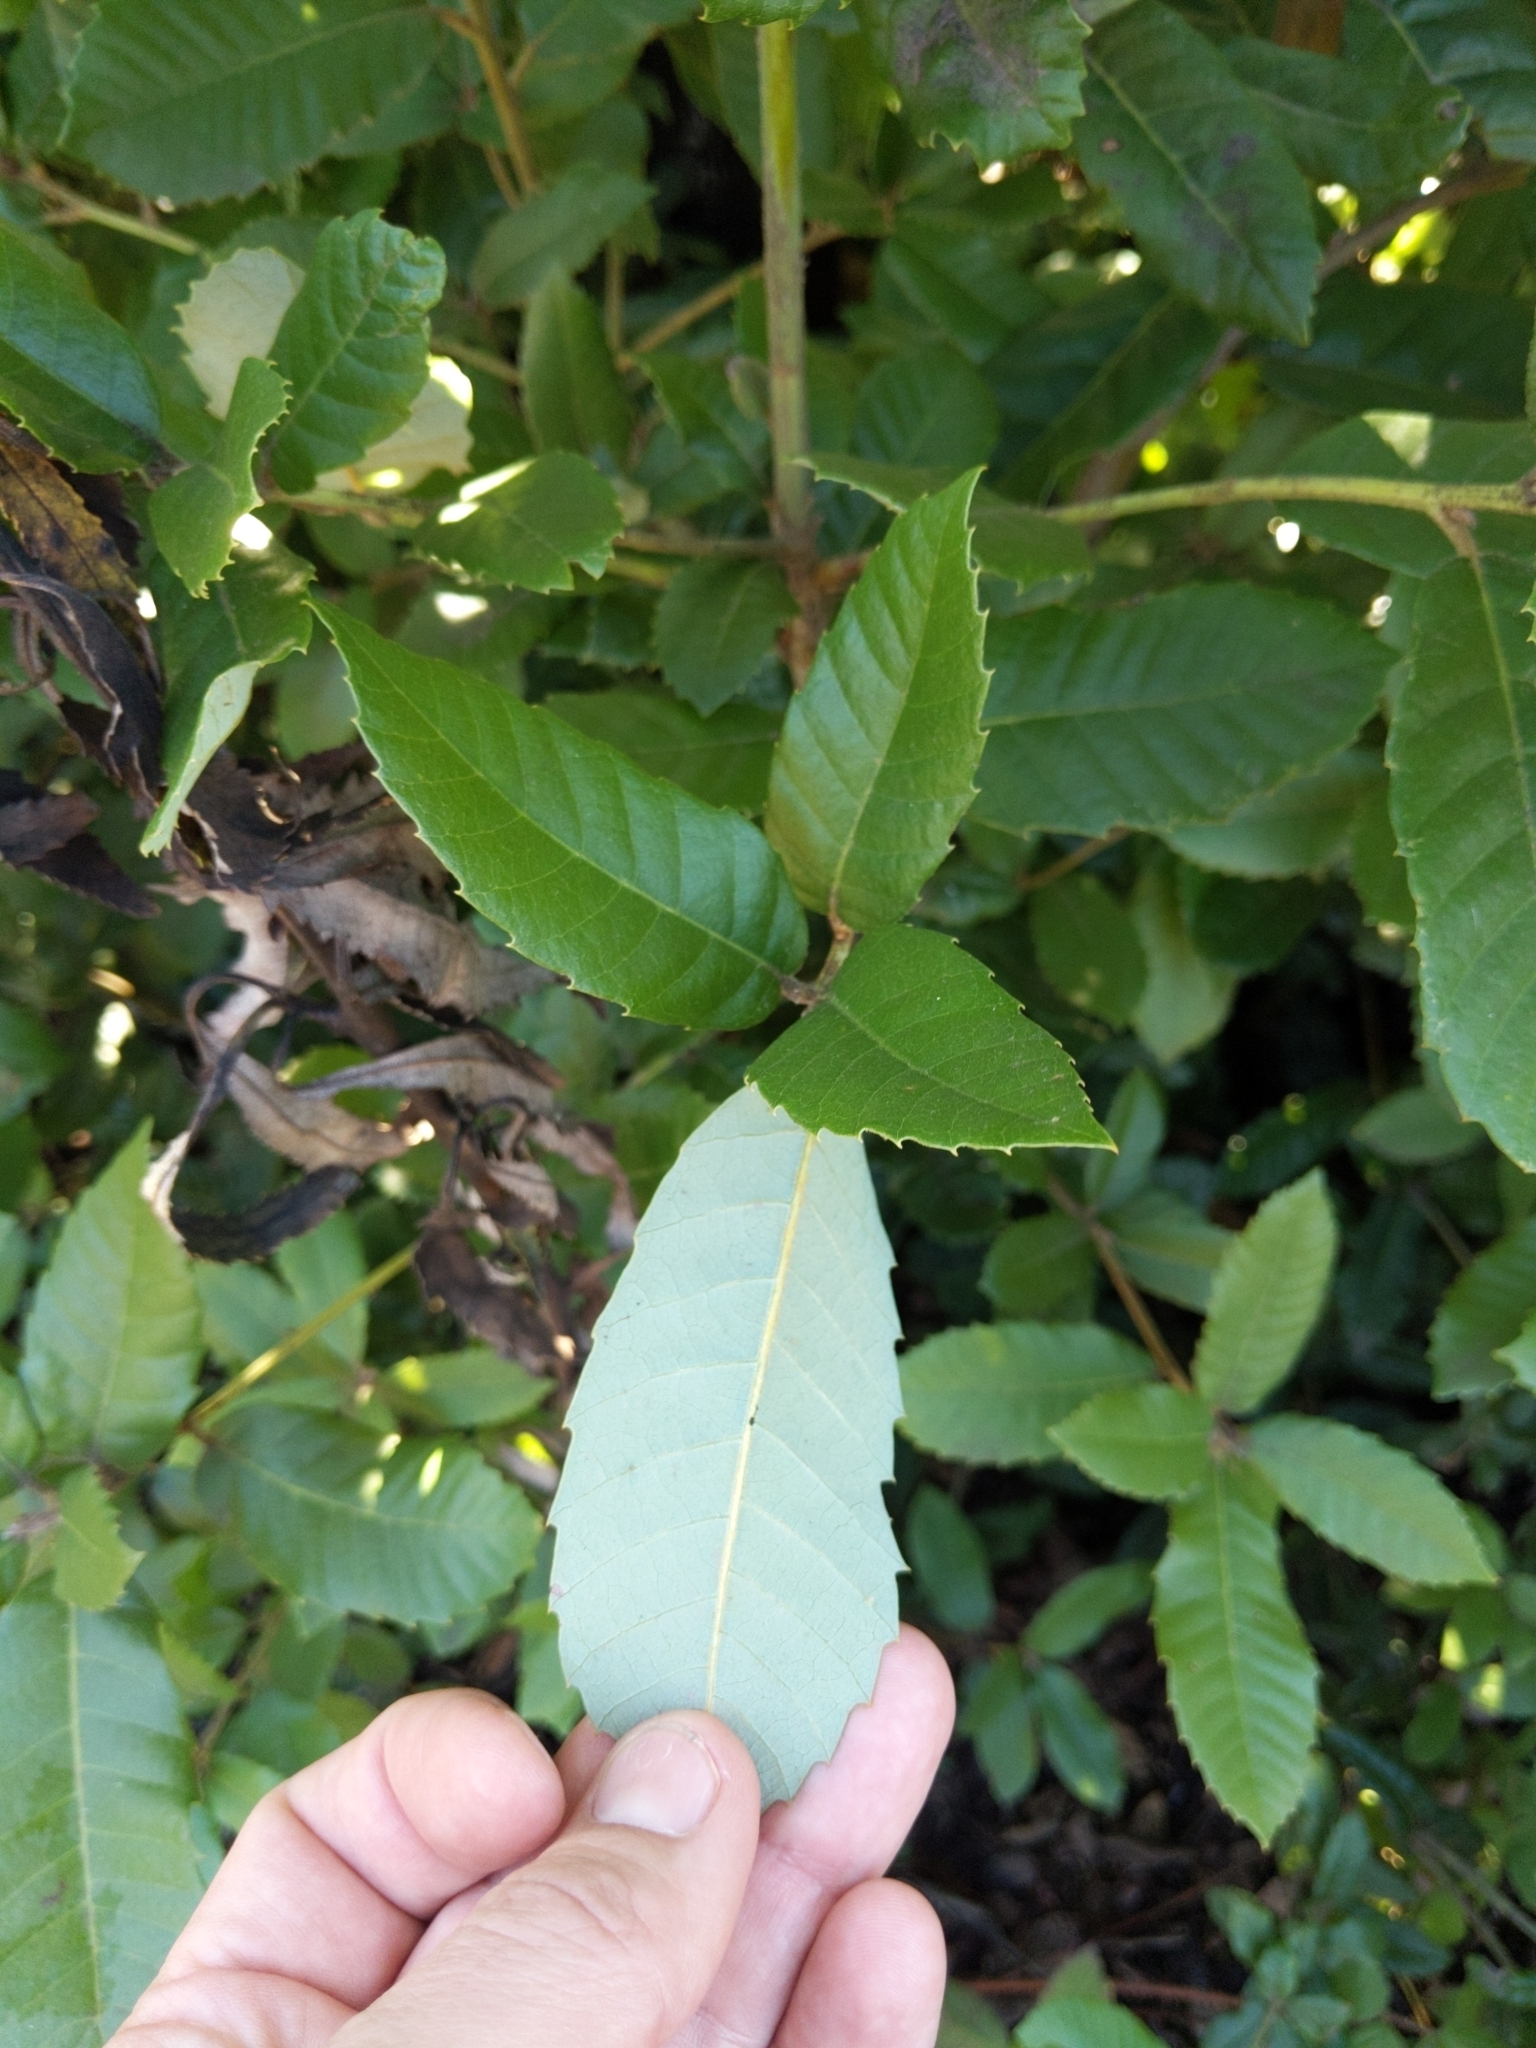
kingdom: Plantae
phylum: Tracheophyta
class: Magnoliopsida
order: Fagales
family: Fagaceae
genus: Notholithocarpus
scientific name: Notholithocarpus densiflorus
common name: Tan bark oak
